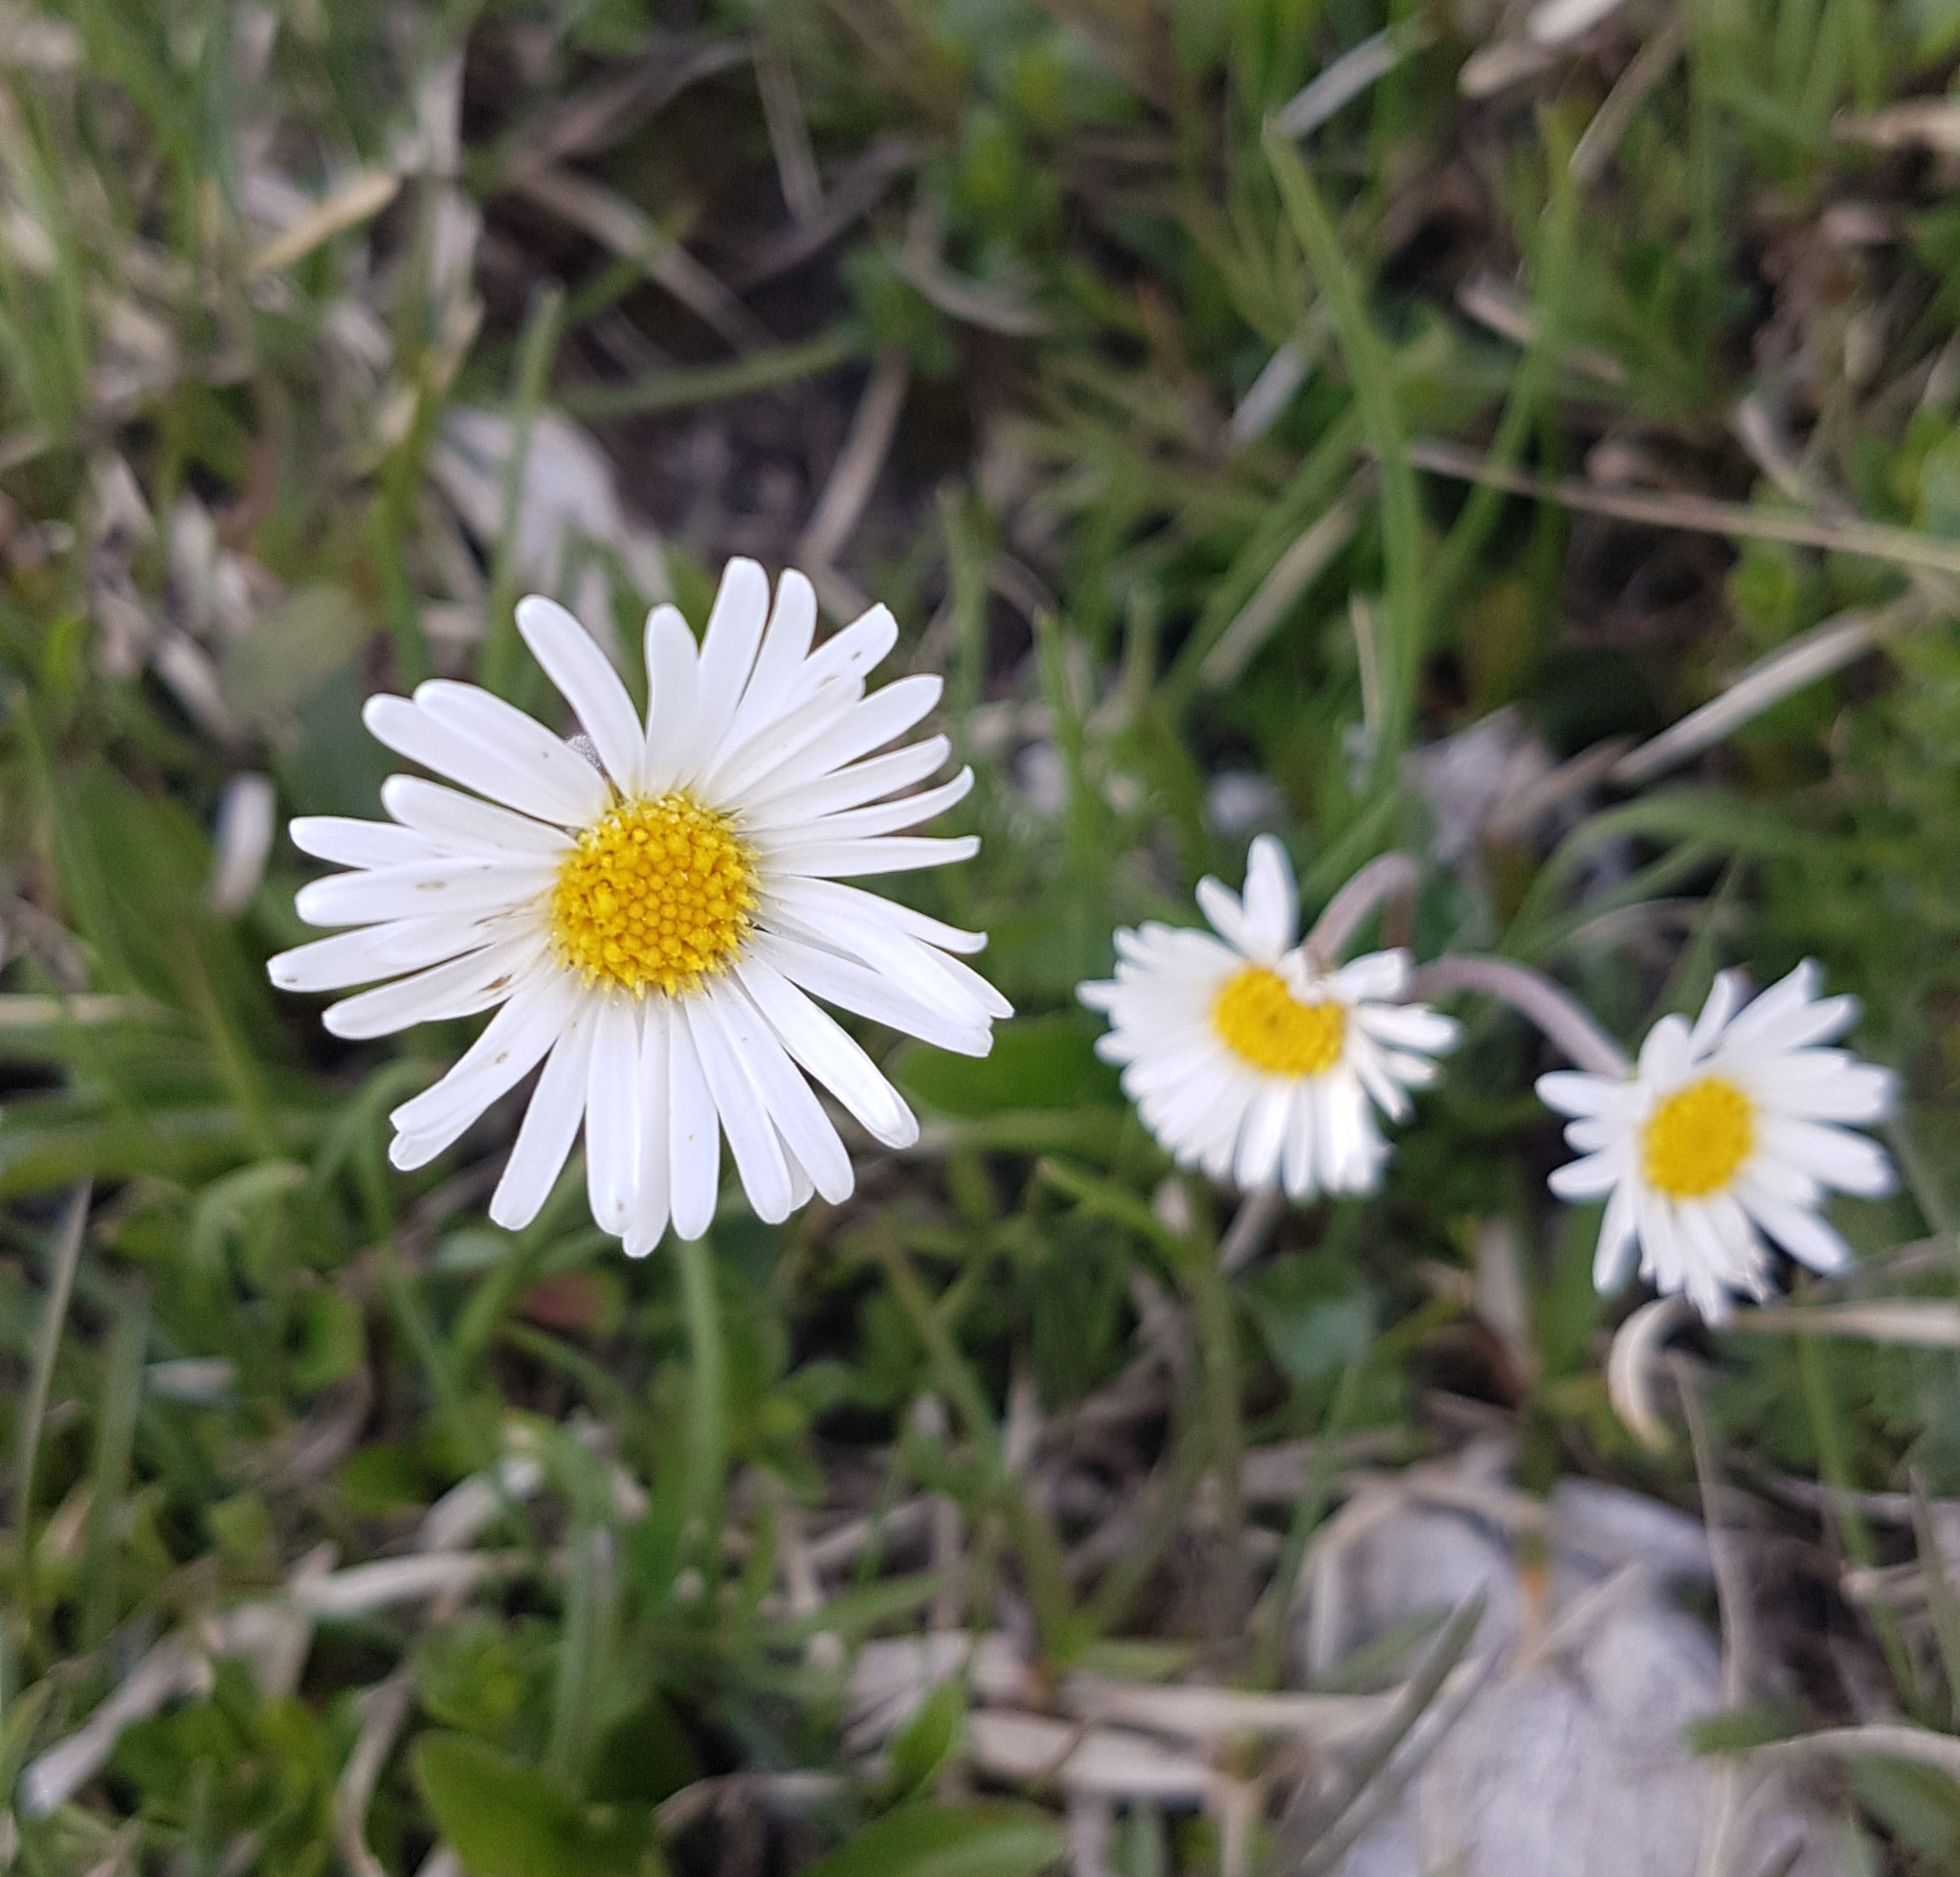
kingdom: Plantae
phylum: Tracheophyta
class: Magnoliopsida
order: Asterales
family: Asteraceae
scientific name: Asteraceae
